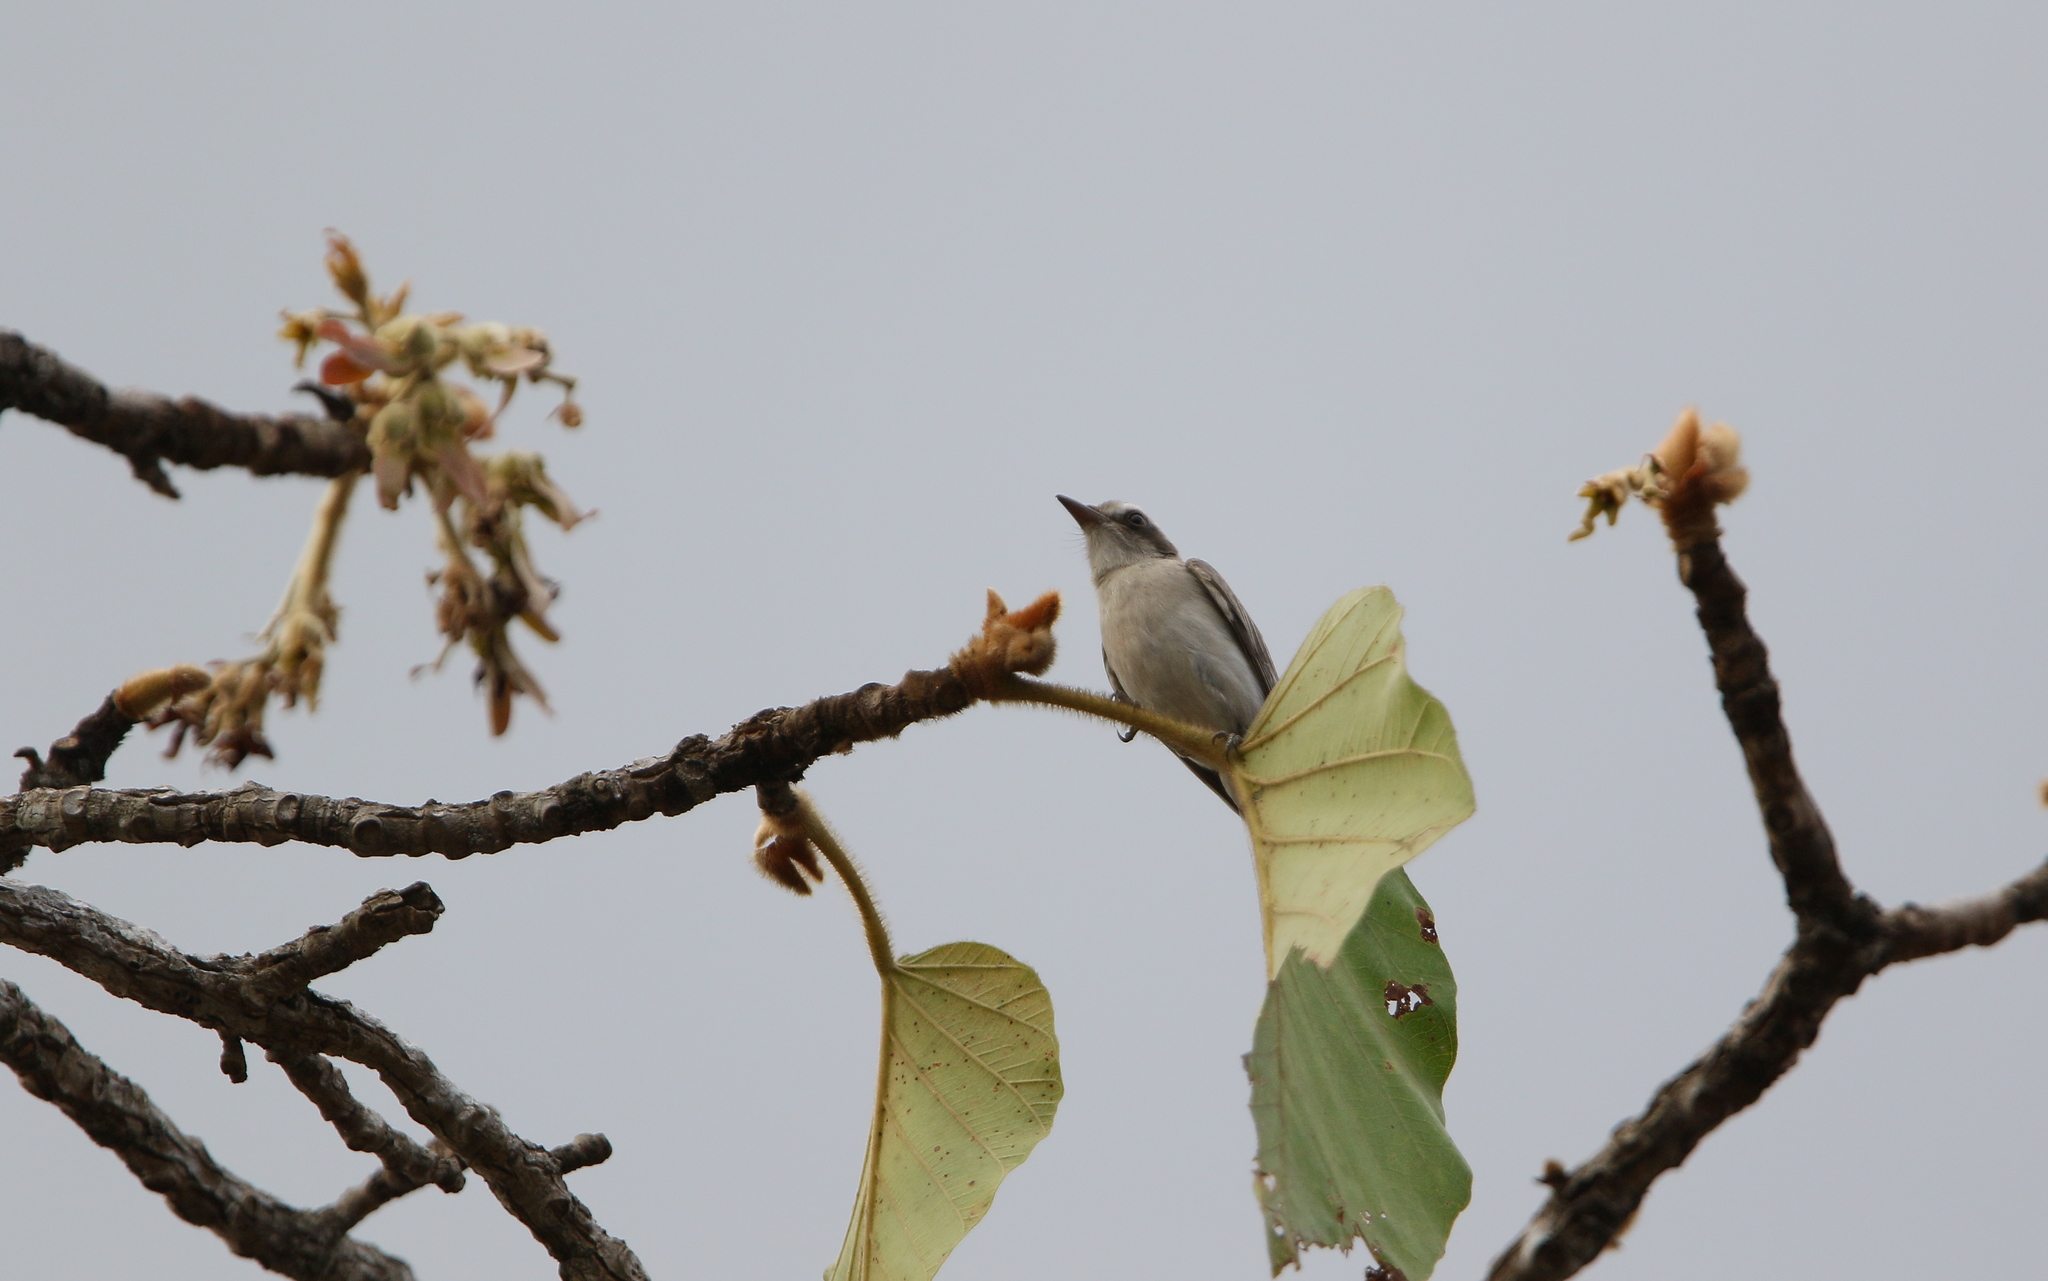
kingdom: Animalia
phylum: Chordata
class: Aves
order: Passeriformes
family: Tephrodornithidae
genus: Tephrodornis
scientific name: Tephrodornis pondicerianus
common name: Common woodshrike
